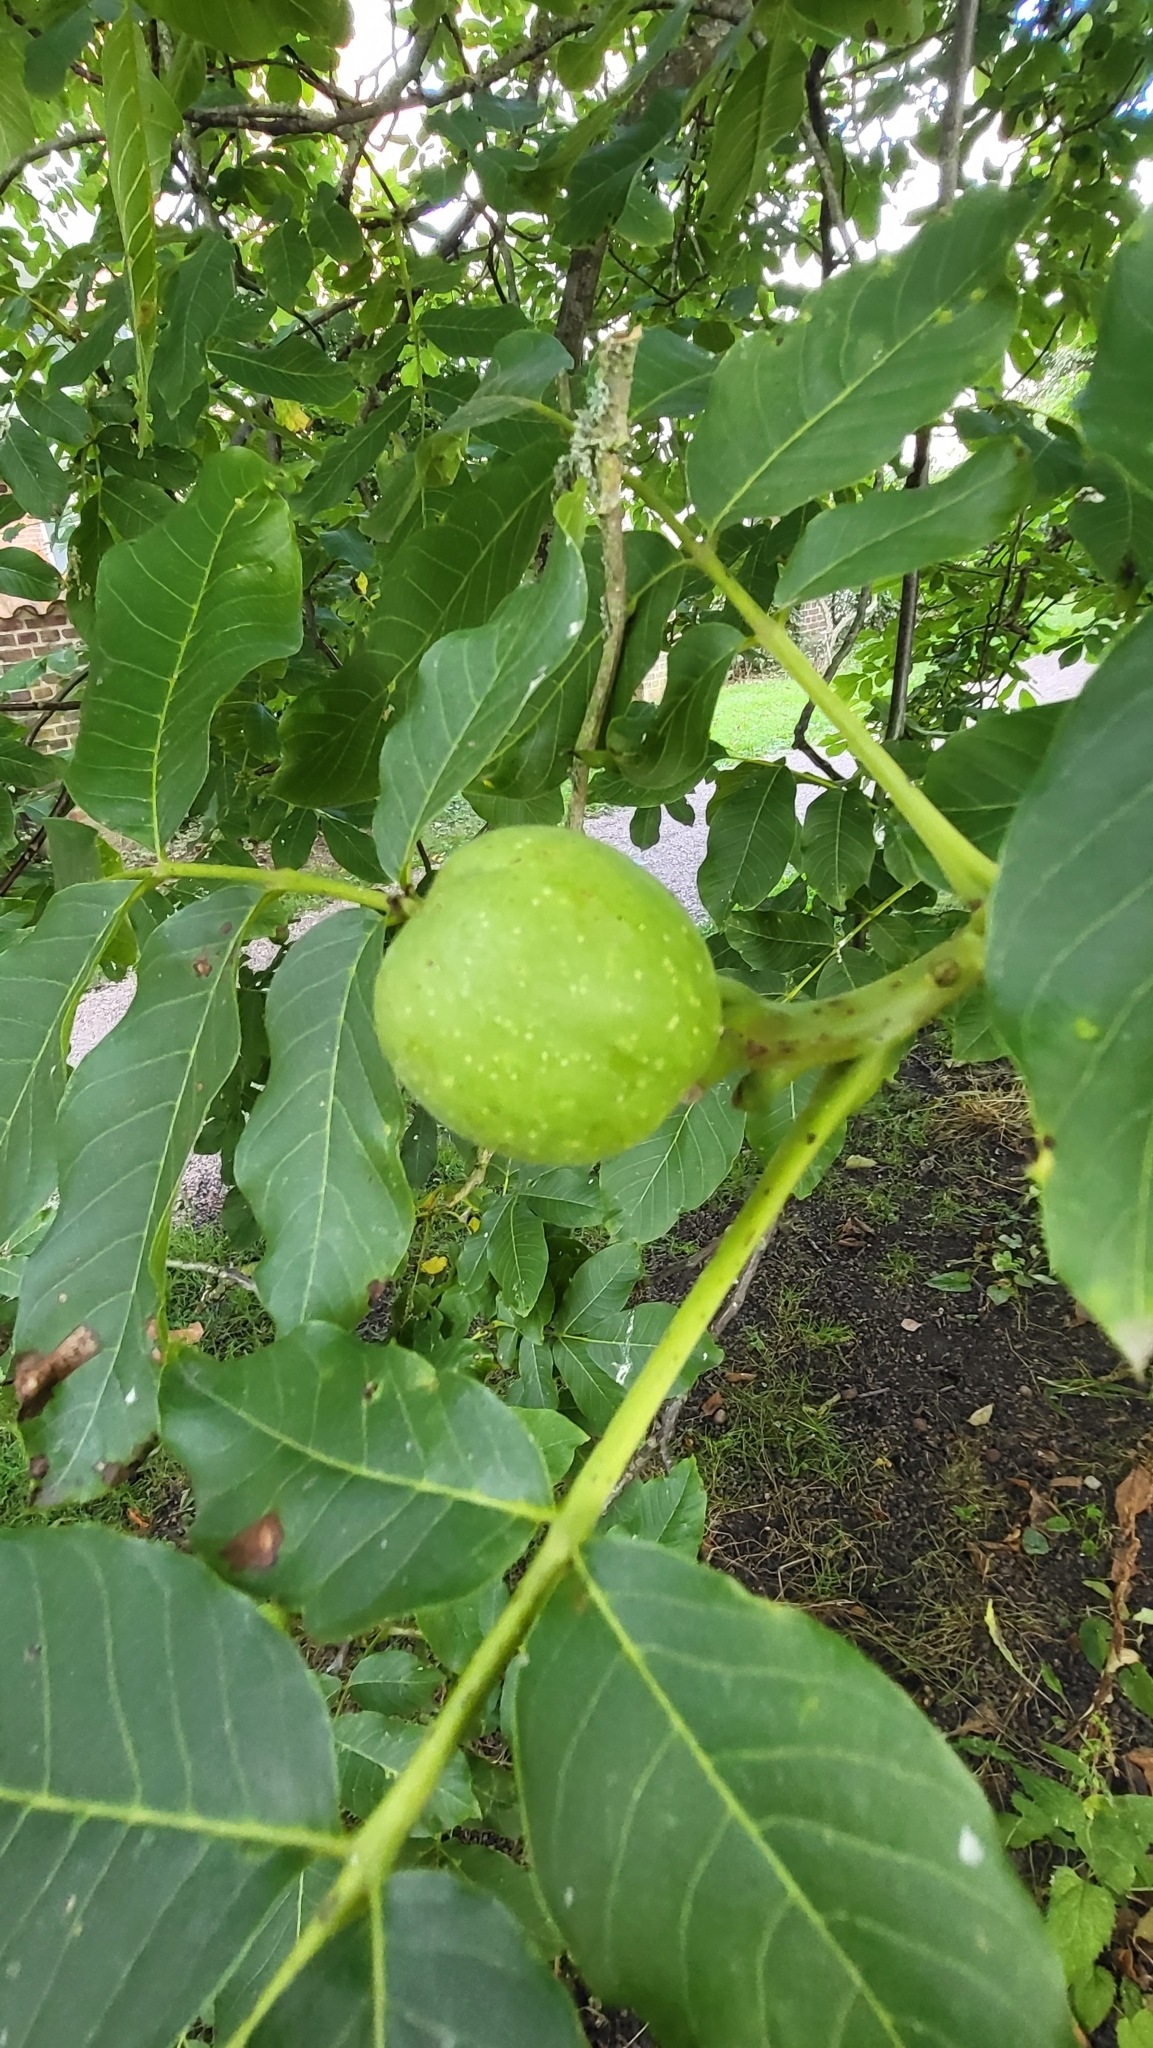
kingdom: Plantae
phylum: Tracheophyta
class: Magnoliopsida
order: Fagales
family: Juglandaceae
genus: Juglans
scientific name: Juglans regia
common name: Walnut
